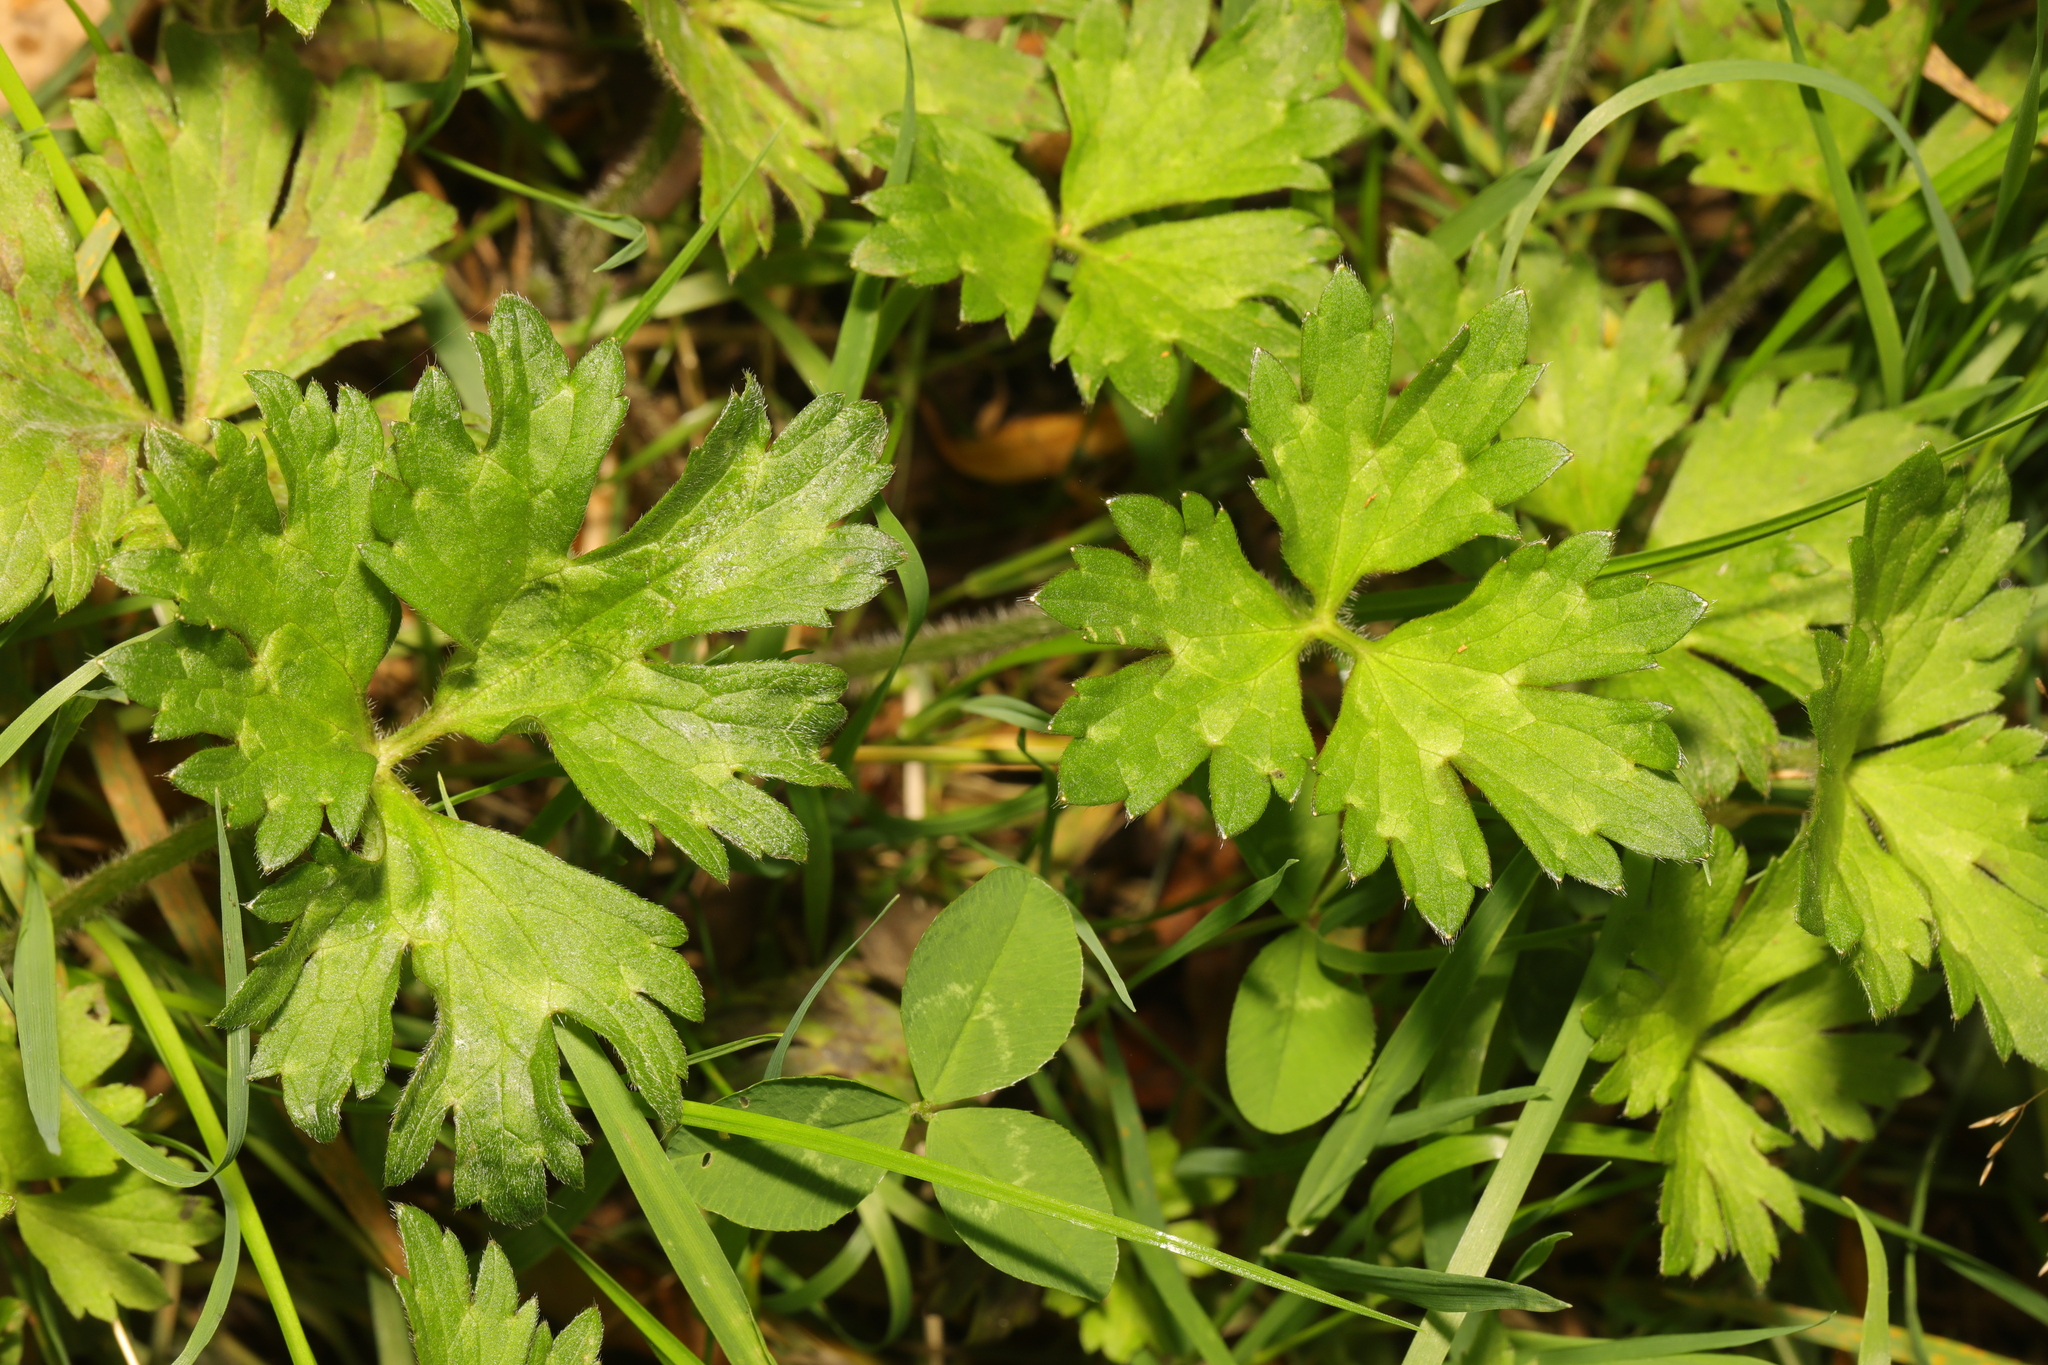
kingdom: Plantae
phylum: Tracheophyta
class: Magnoliopsida
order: Ranunculales
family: Ranunculaceae
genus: Ranunculus
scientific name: Ranunculus repens
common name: Creeping buttercup
